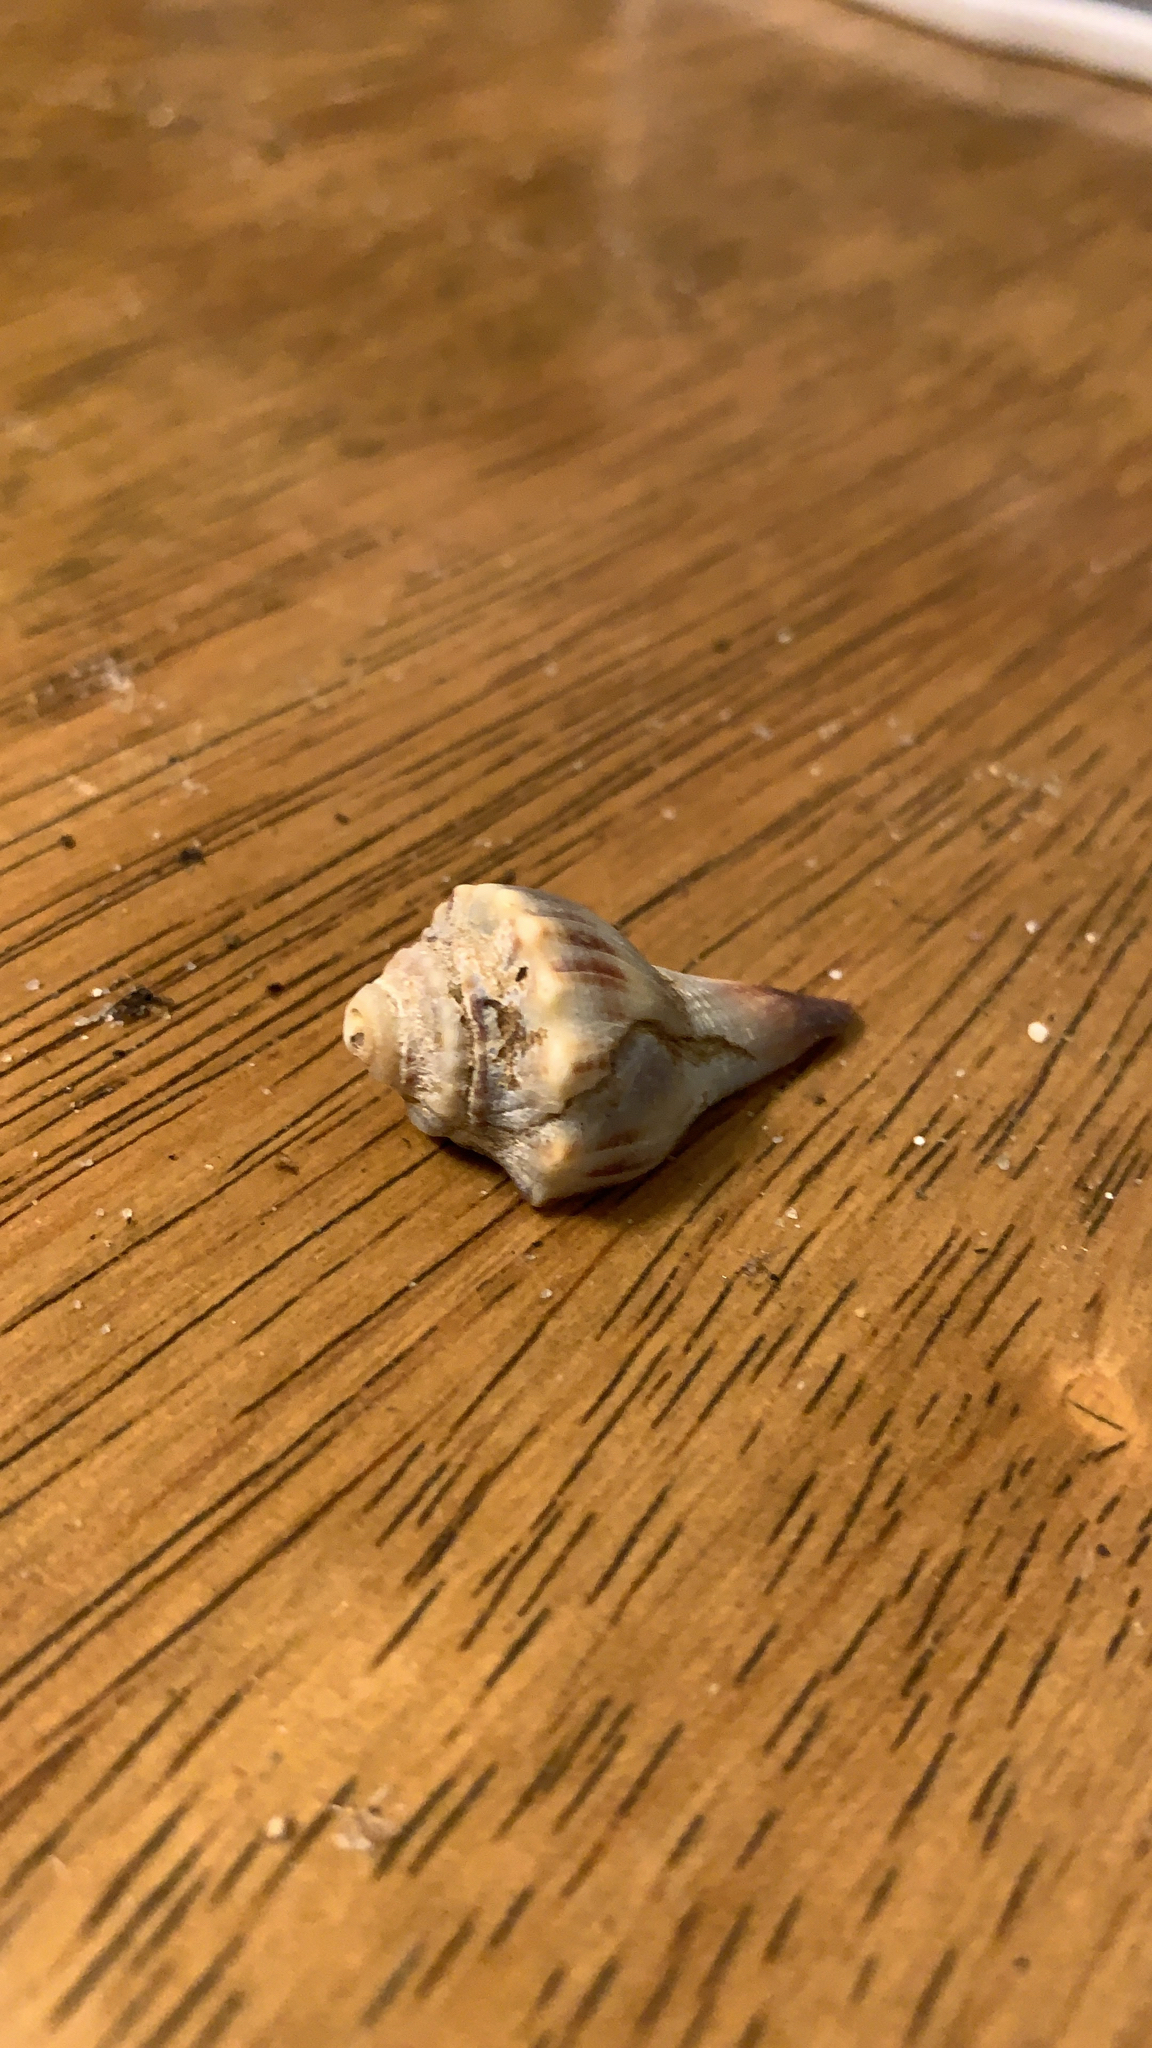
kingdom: Animalia
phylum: Mollusca
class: Gastropoda
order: Neogastropoda
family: Busyconidae
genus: Busycon
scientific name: Busycon carica
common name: Knobbed whelk
